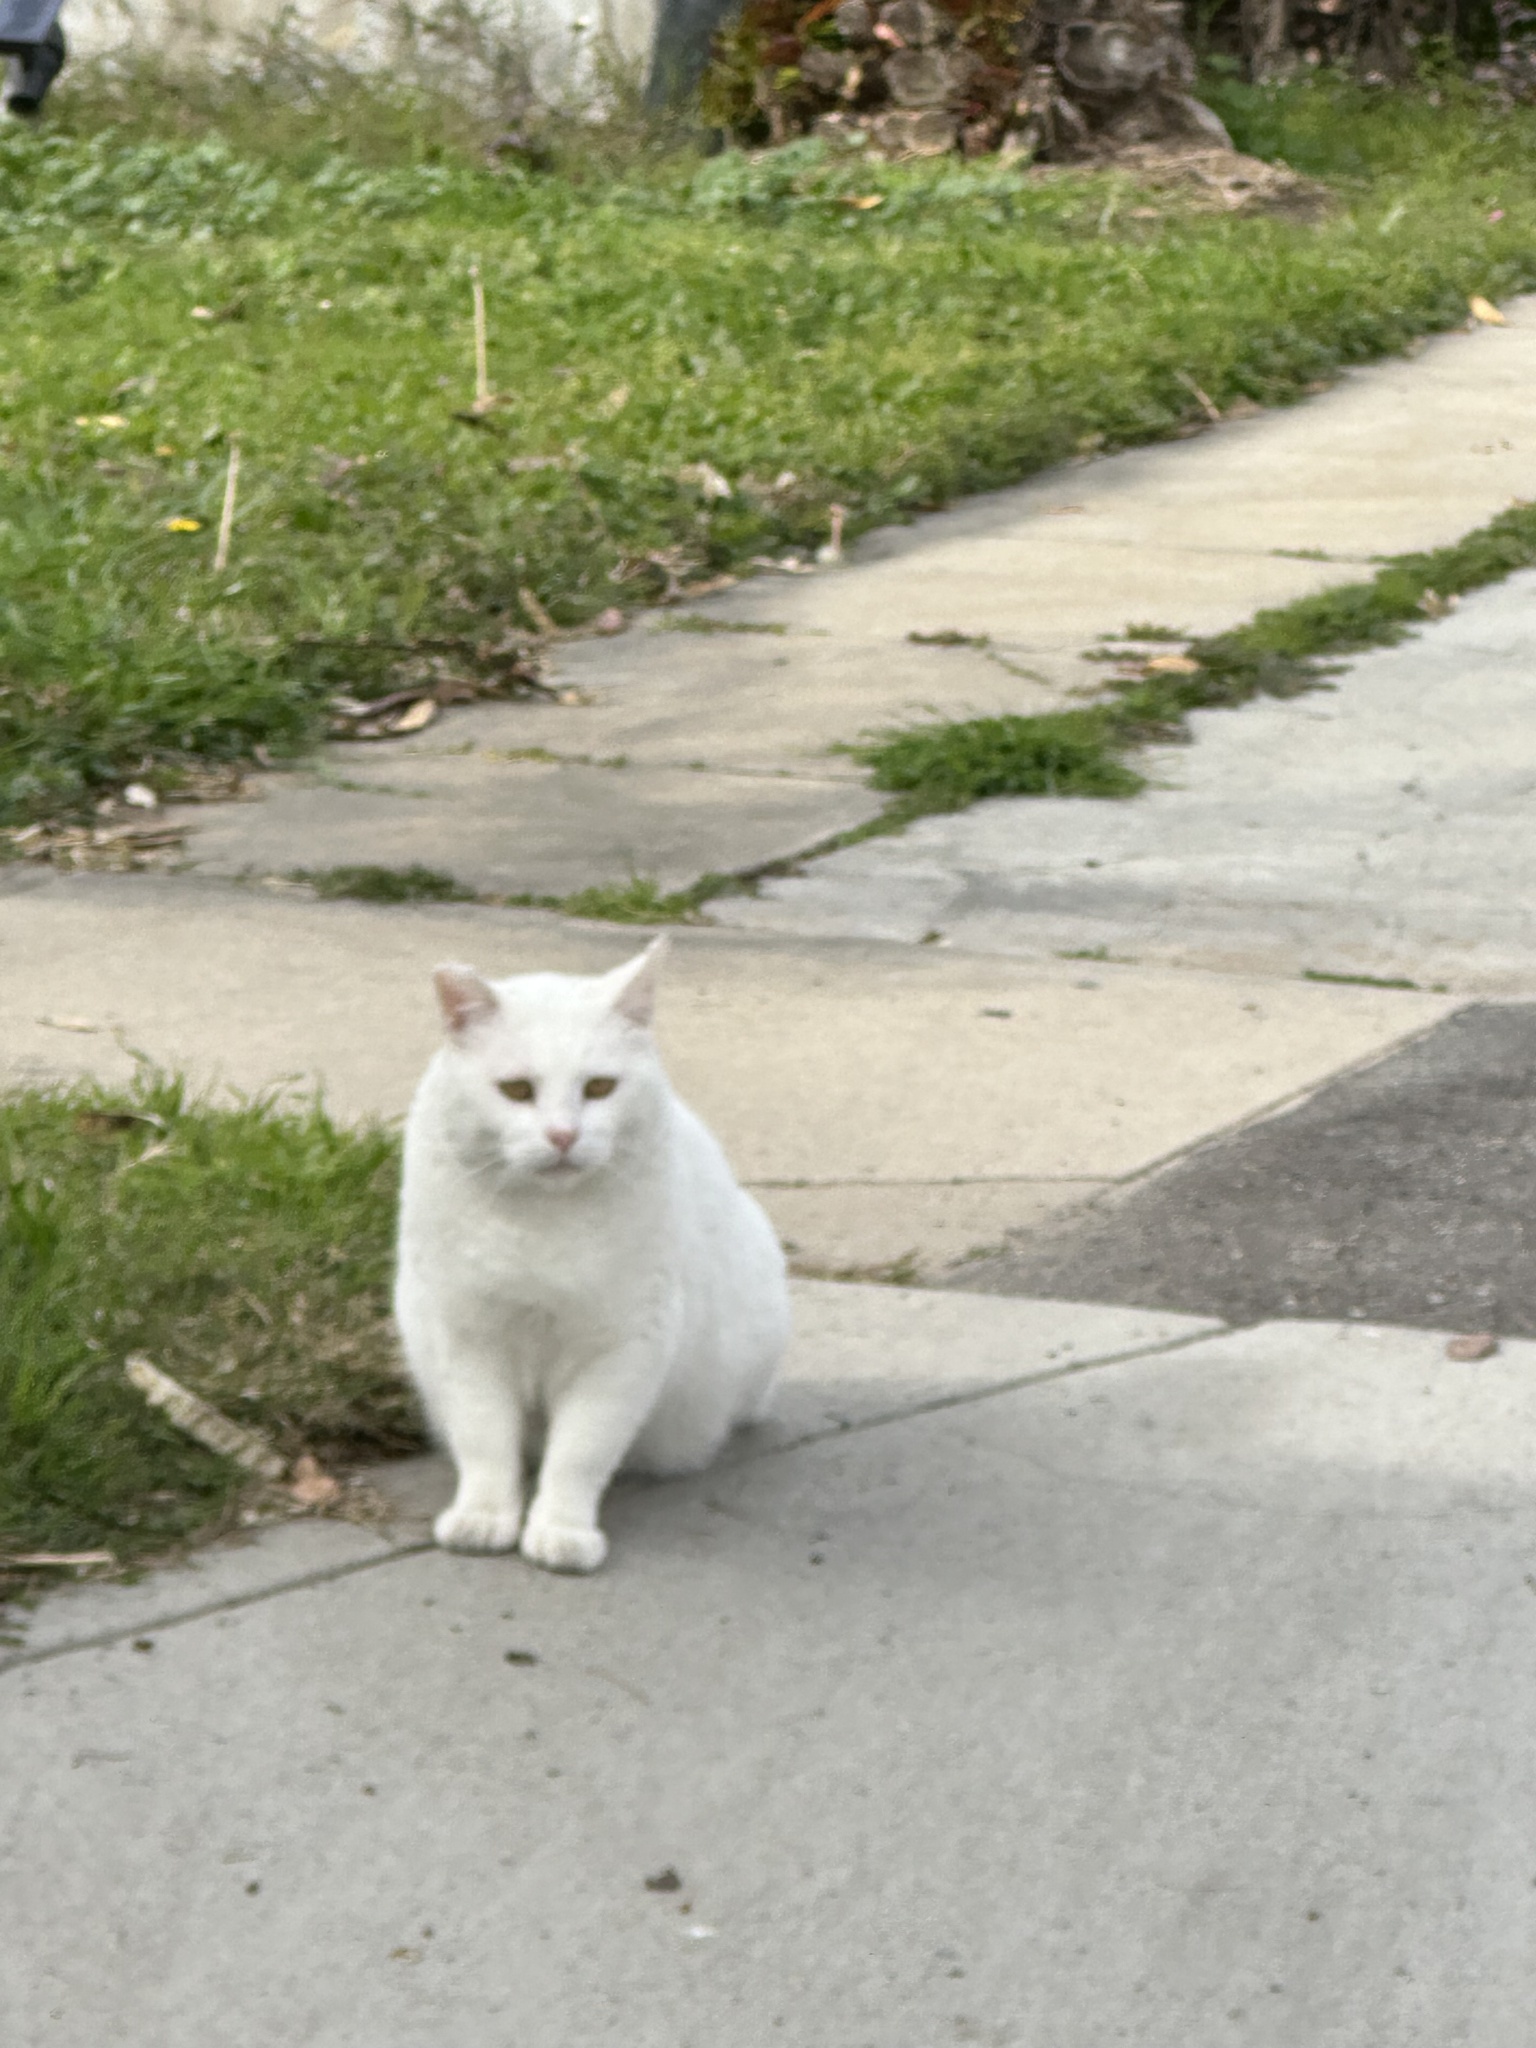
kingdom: Animalia
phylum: Chordata
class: Mammalia
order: Carnivora
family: Felidae
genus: Felis
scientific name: Felis catus
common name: Domestic cat
